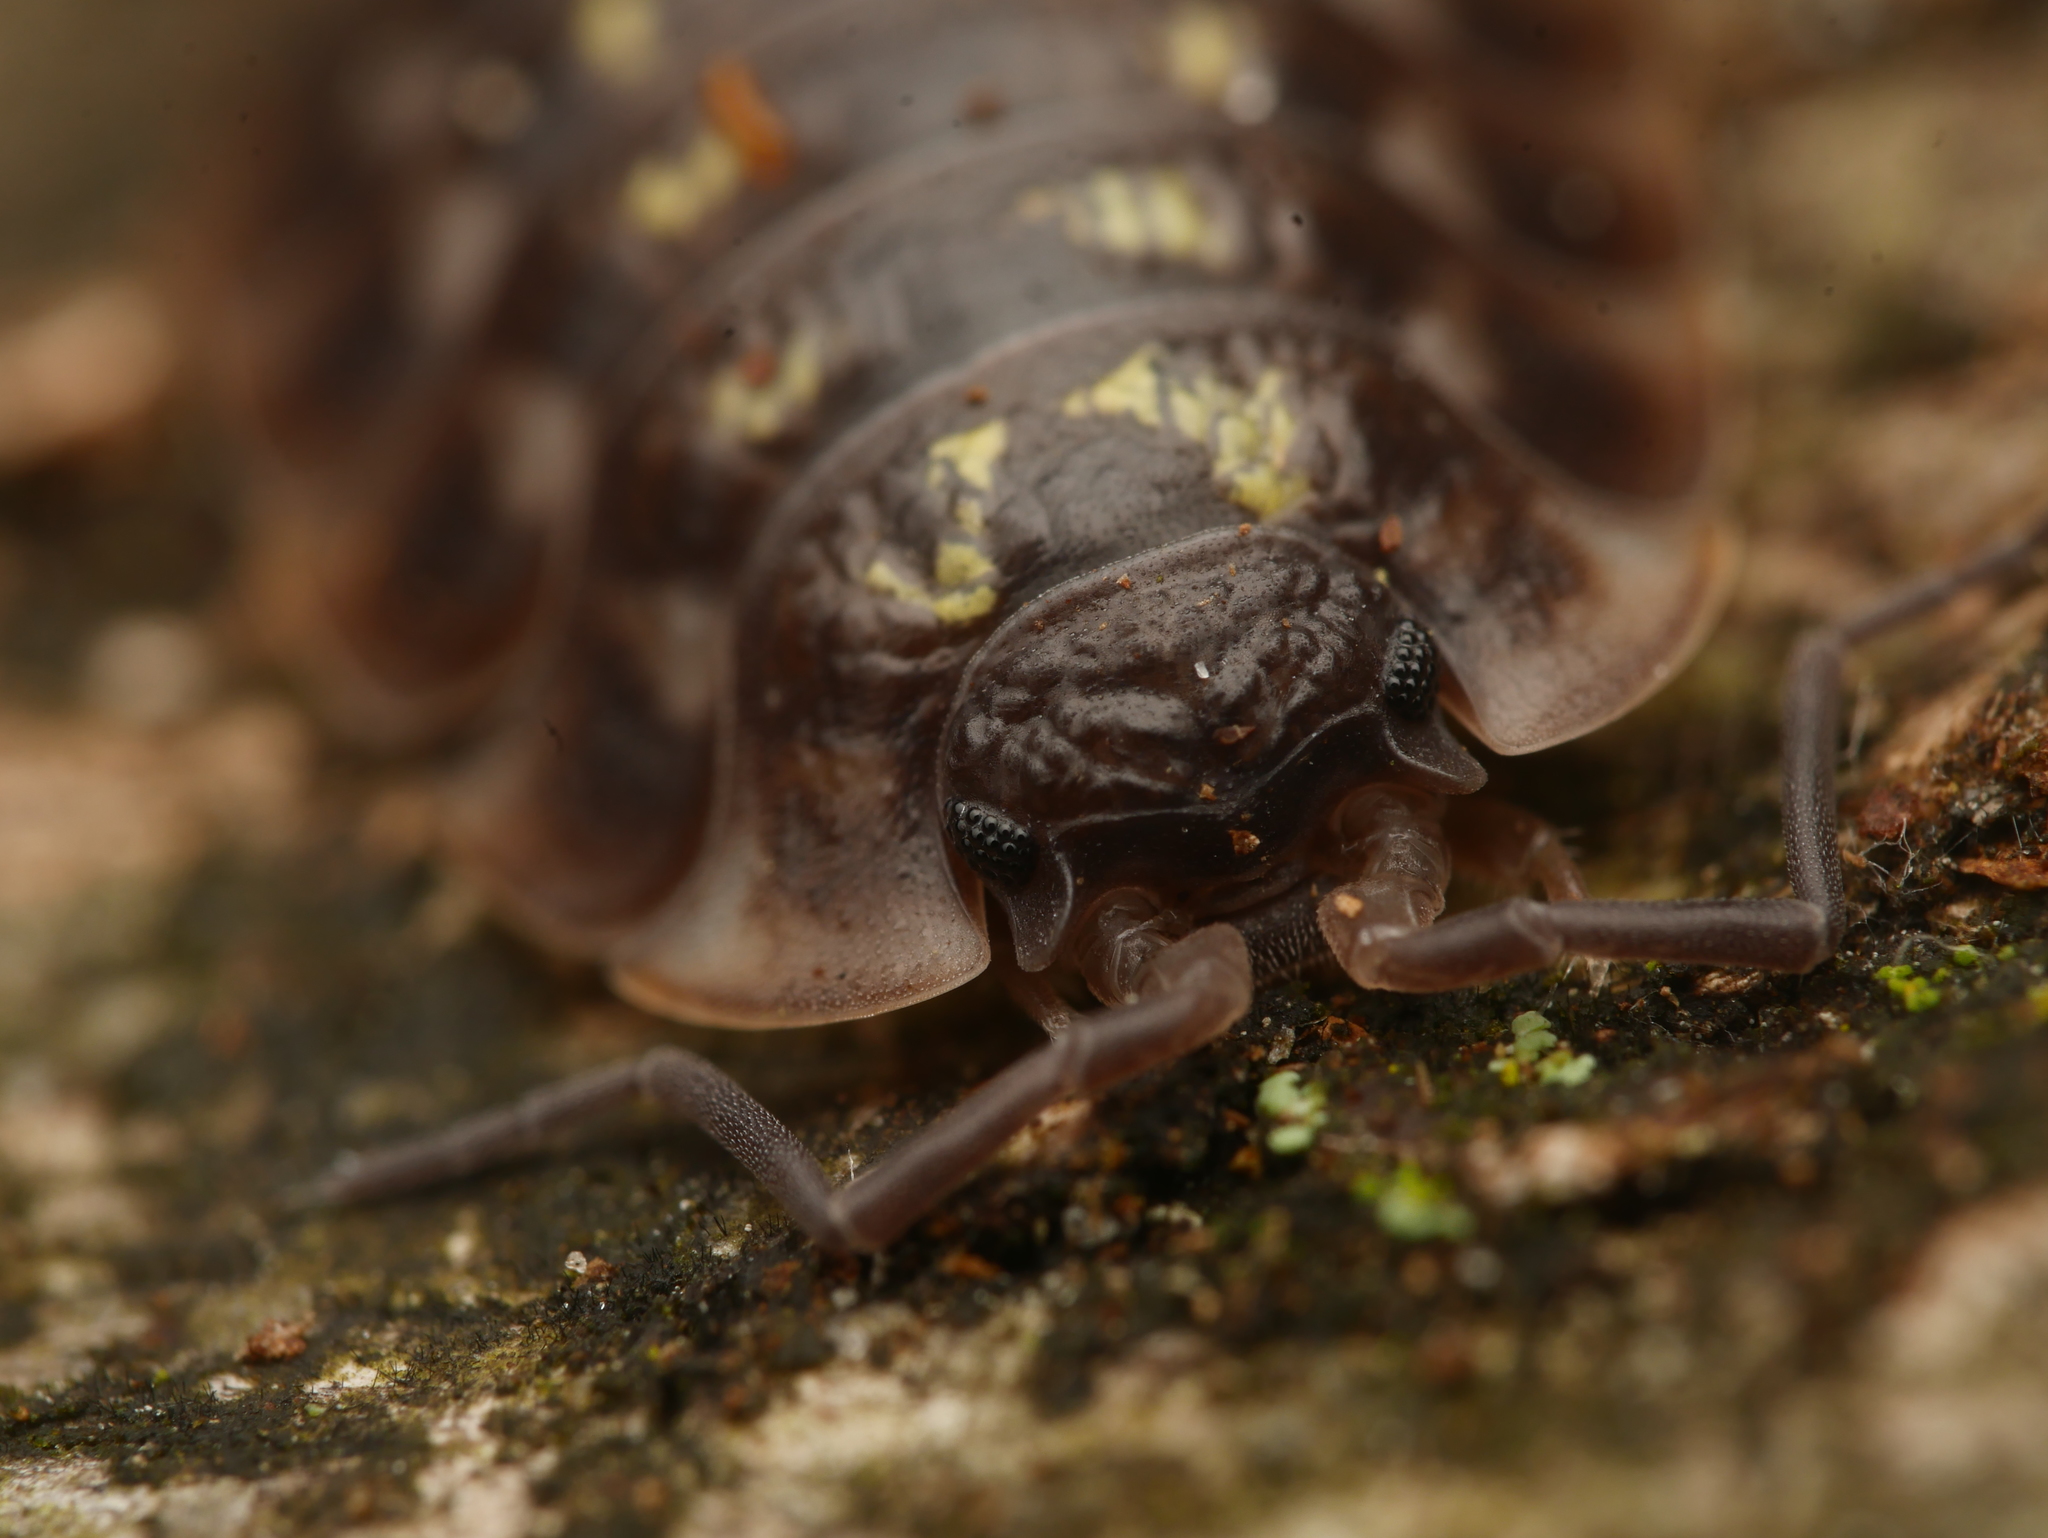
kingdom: Animalia
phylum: Arthropoda
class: Malacostraca
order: Isopoda
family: Oniscidae
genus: Oniscus
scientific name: Oniscus asellus
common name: Common shiny woodlouse
